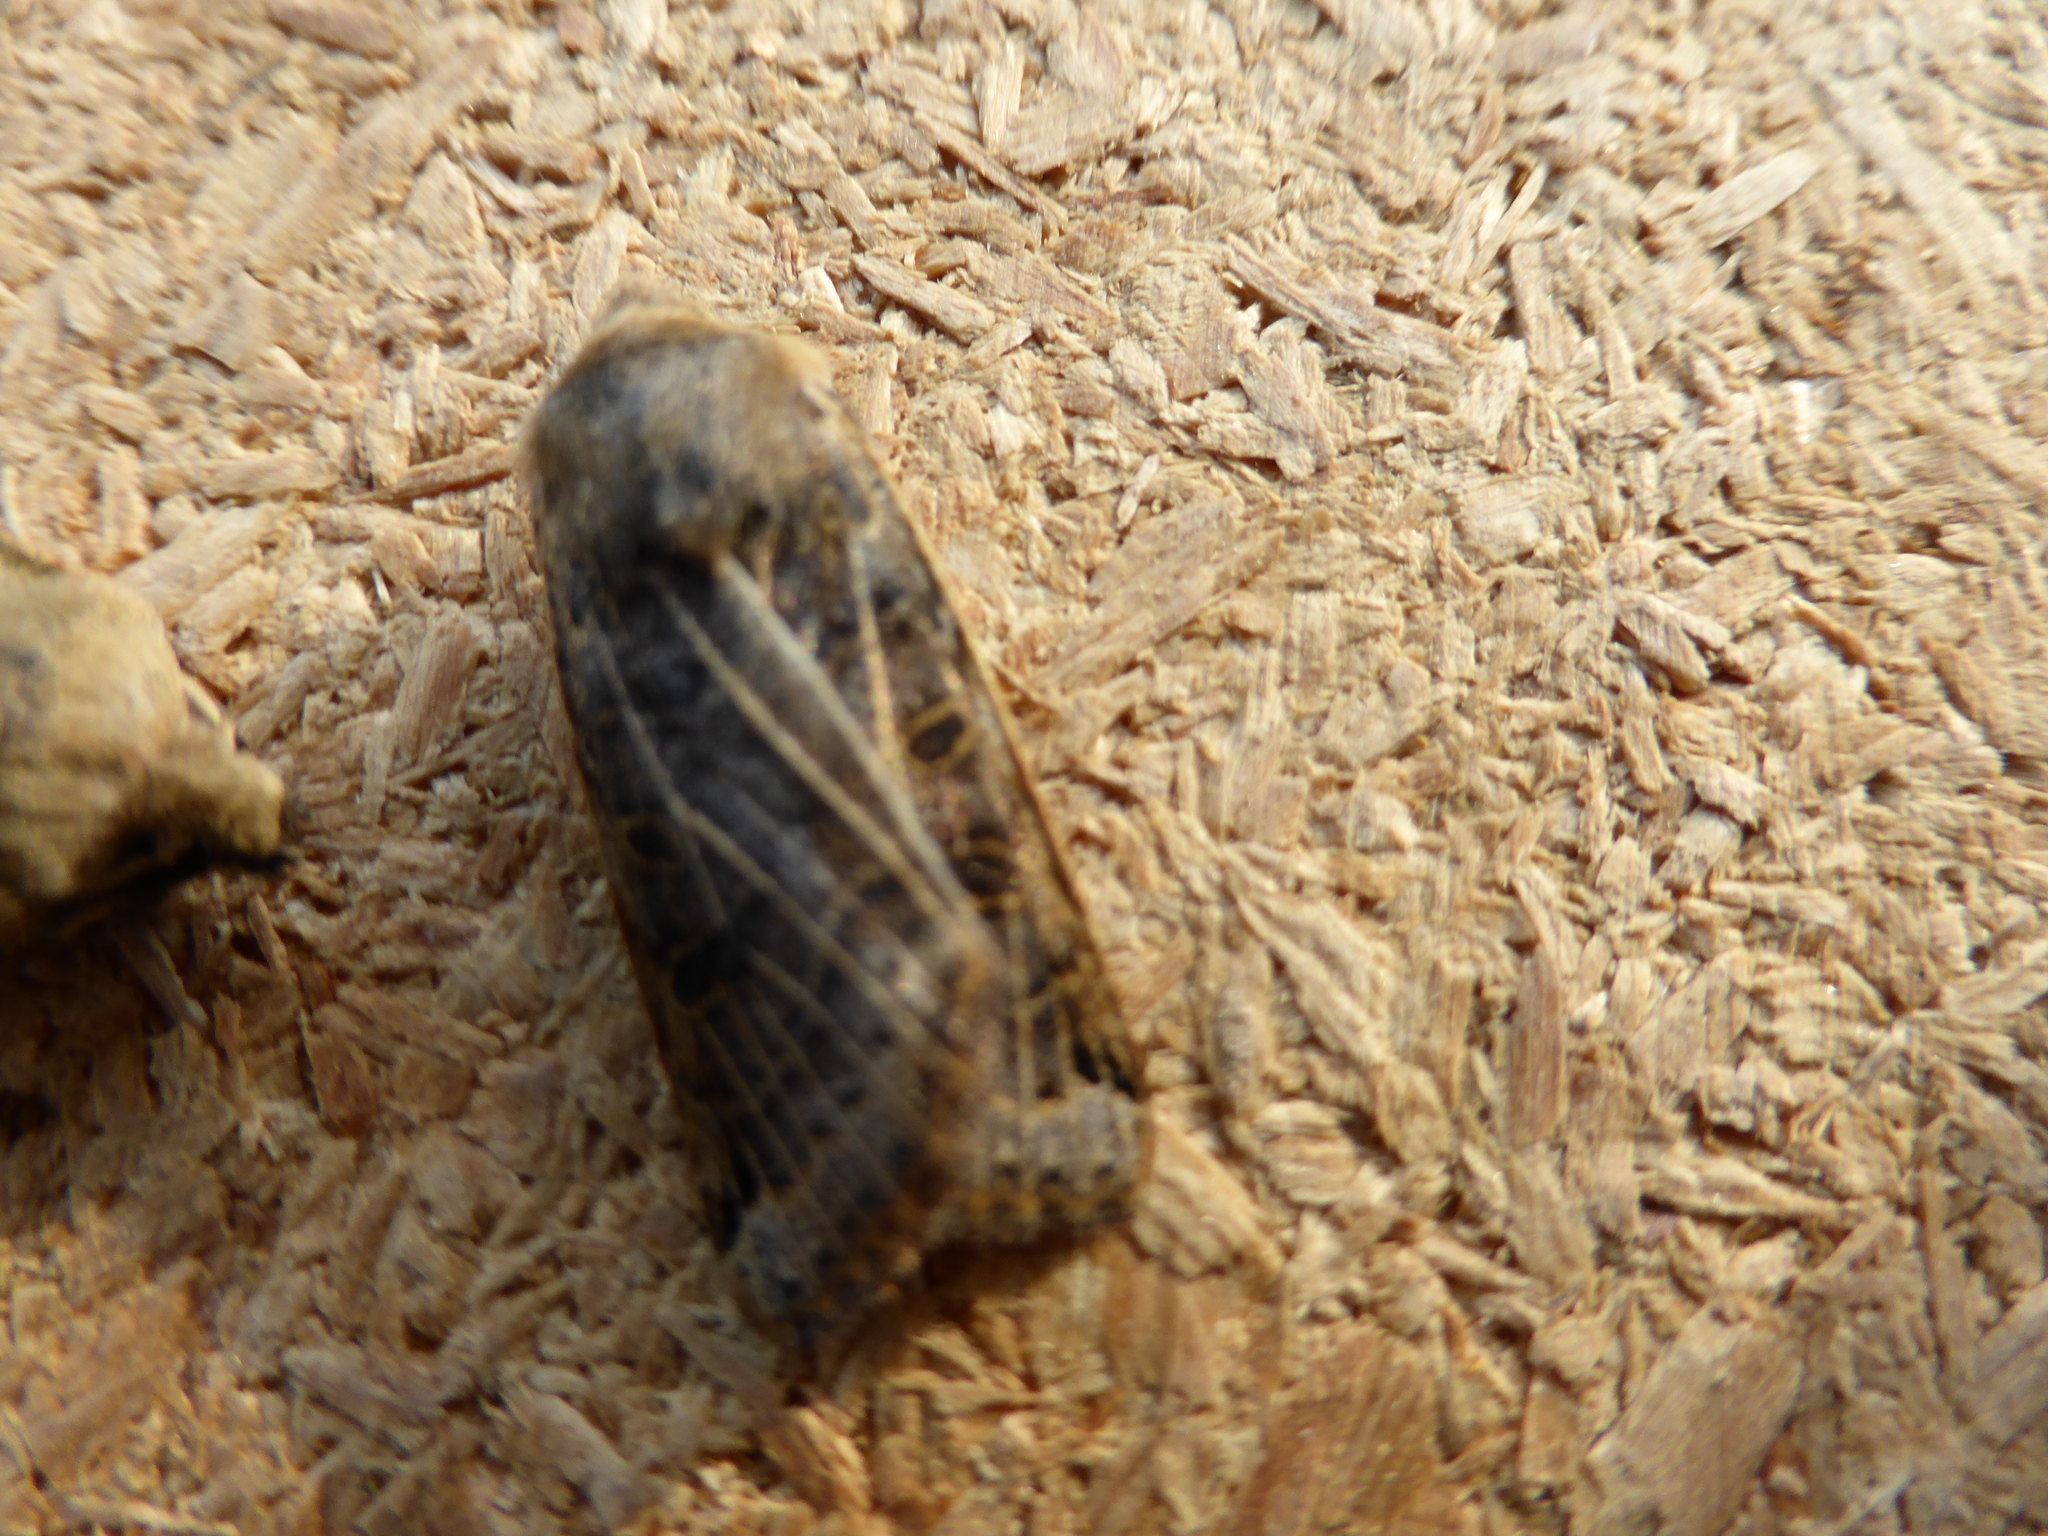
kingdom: Animalia
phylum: Arthropoda
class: Insecta
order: Lepidoptera
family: Noctuidae
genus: Agrochola
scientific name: Agrochola lunosa
